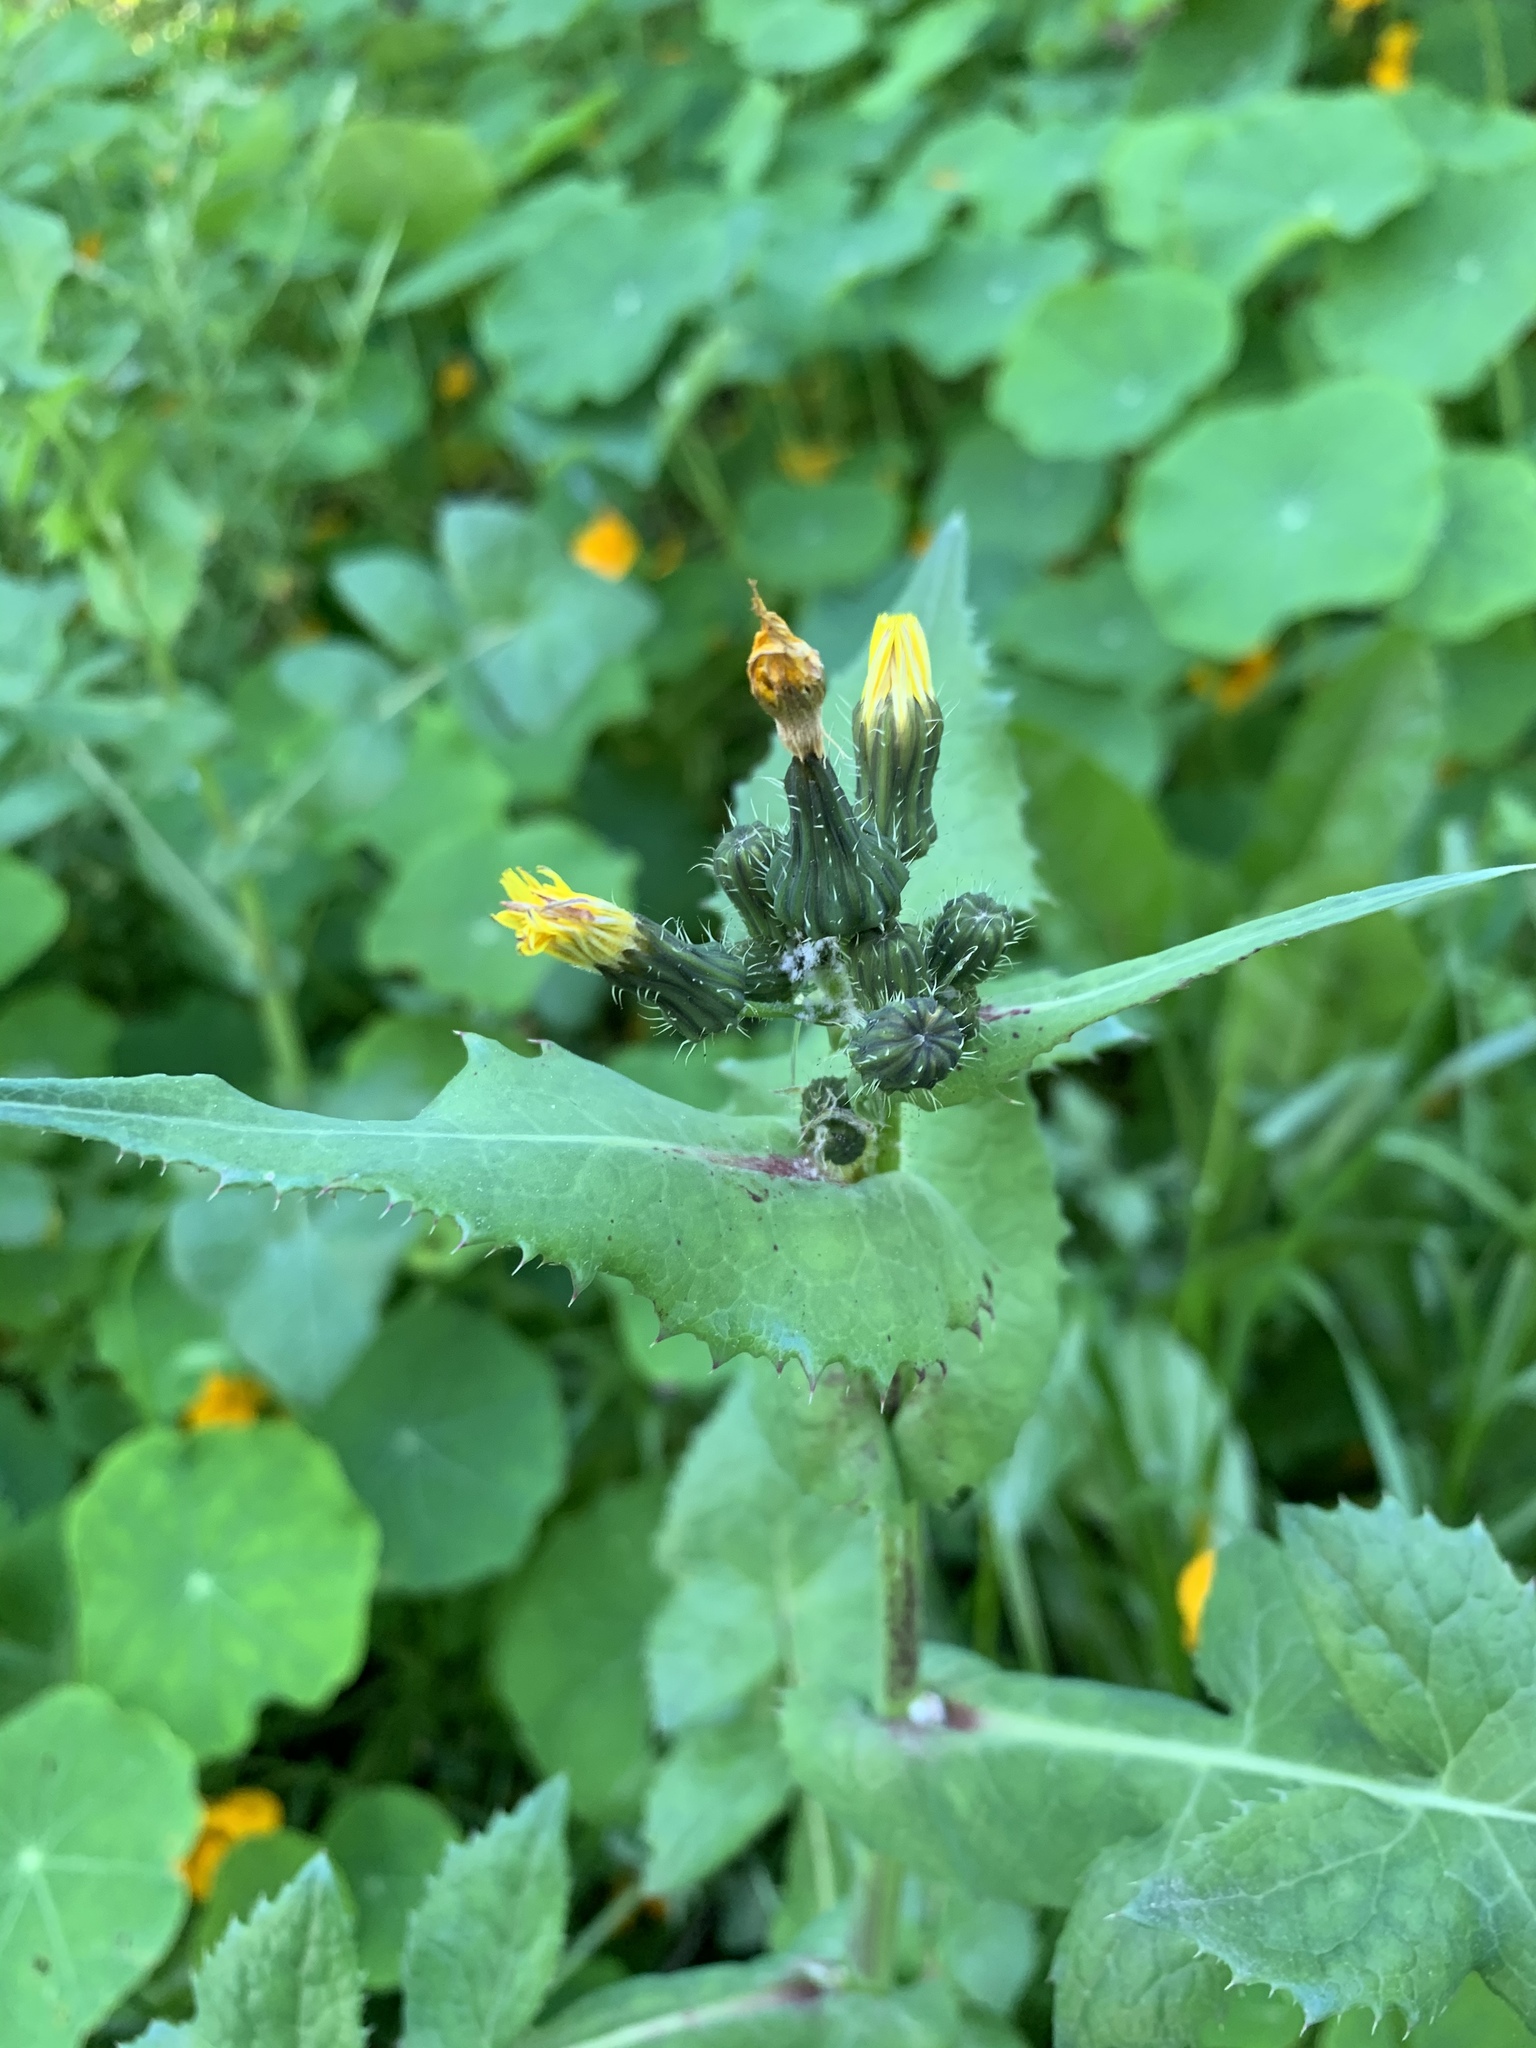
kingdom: Plantae
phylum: Tracheophyta
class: Magnoliopsida
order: Asterales
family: Asteraceae
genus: Sonchus
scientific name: Sonchus oleraceus
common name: Common sowthistle
